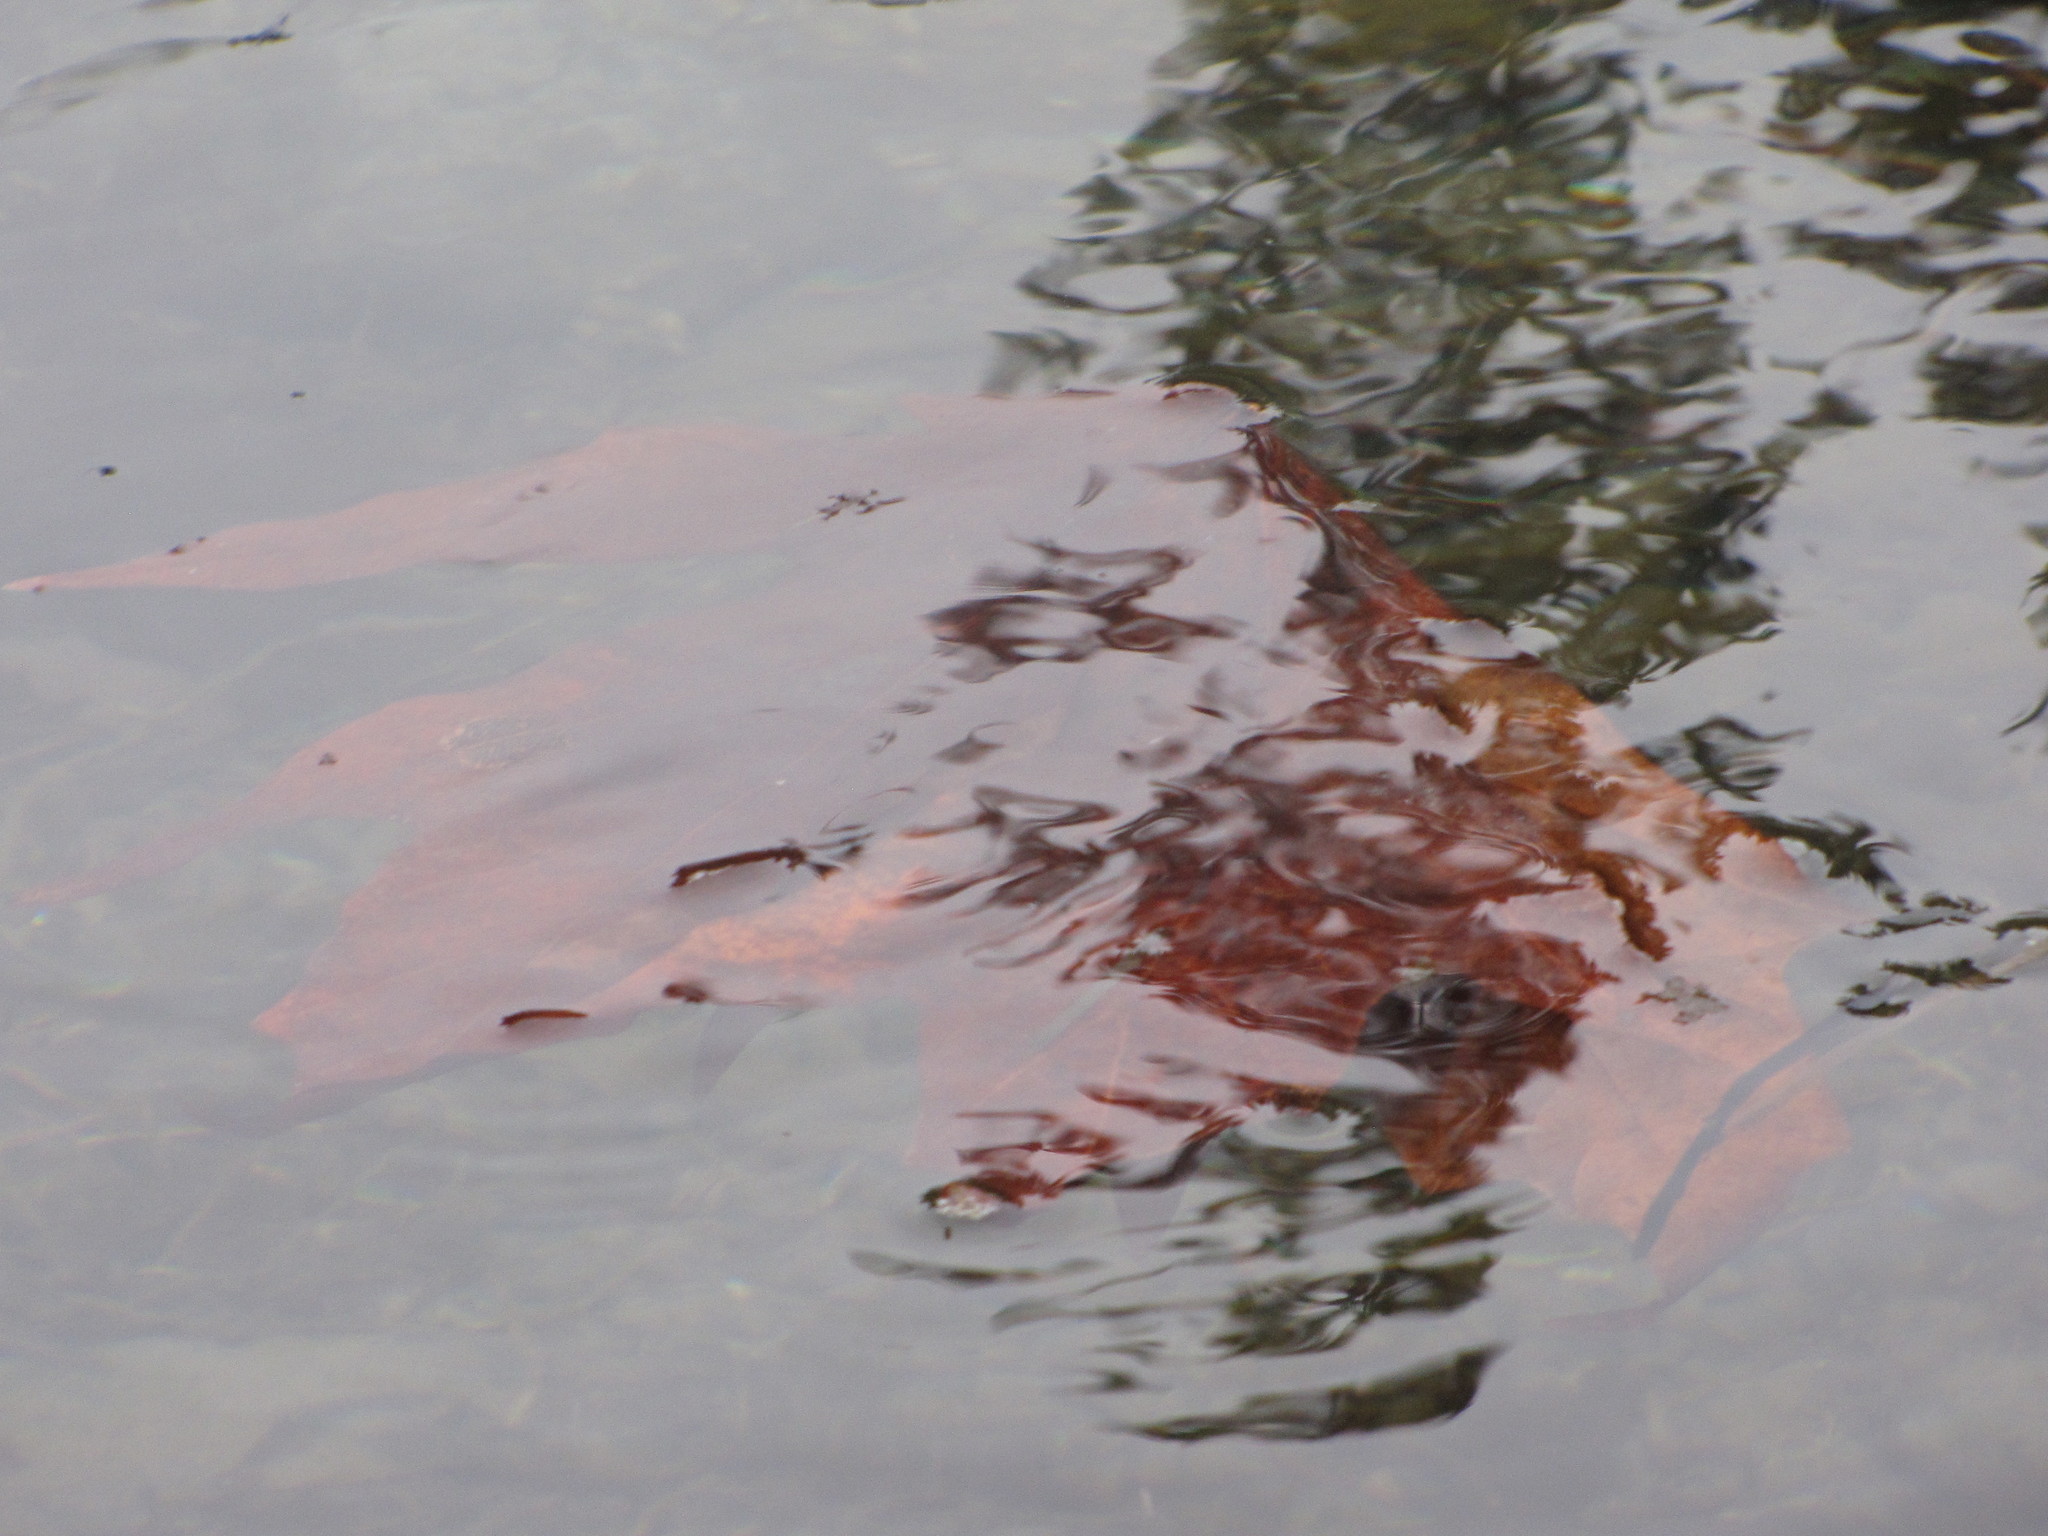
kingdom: Plantae
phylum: Tracheophyta
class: Magnoliopsida
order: Sapindales
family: Sapindaceae
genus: Acer
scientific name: Acer macrophyllum
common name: Oregon maple
